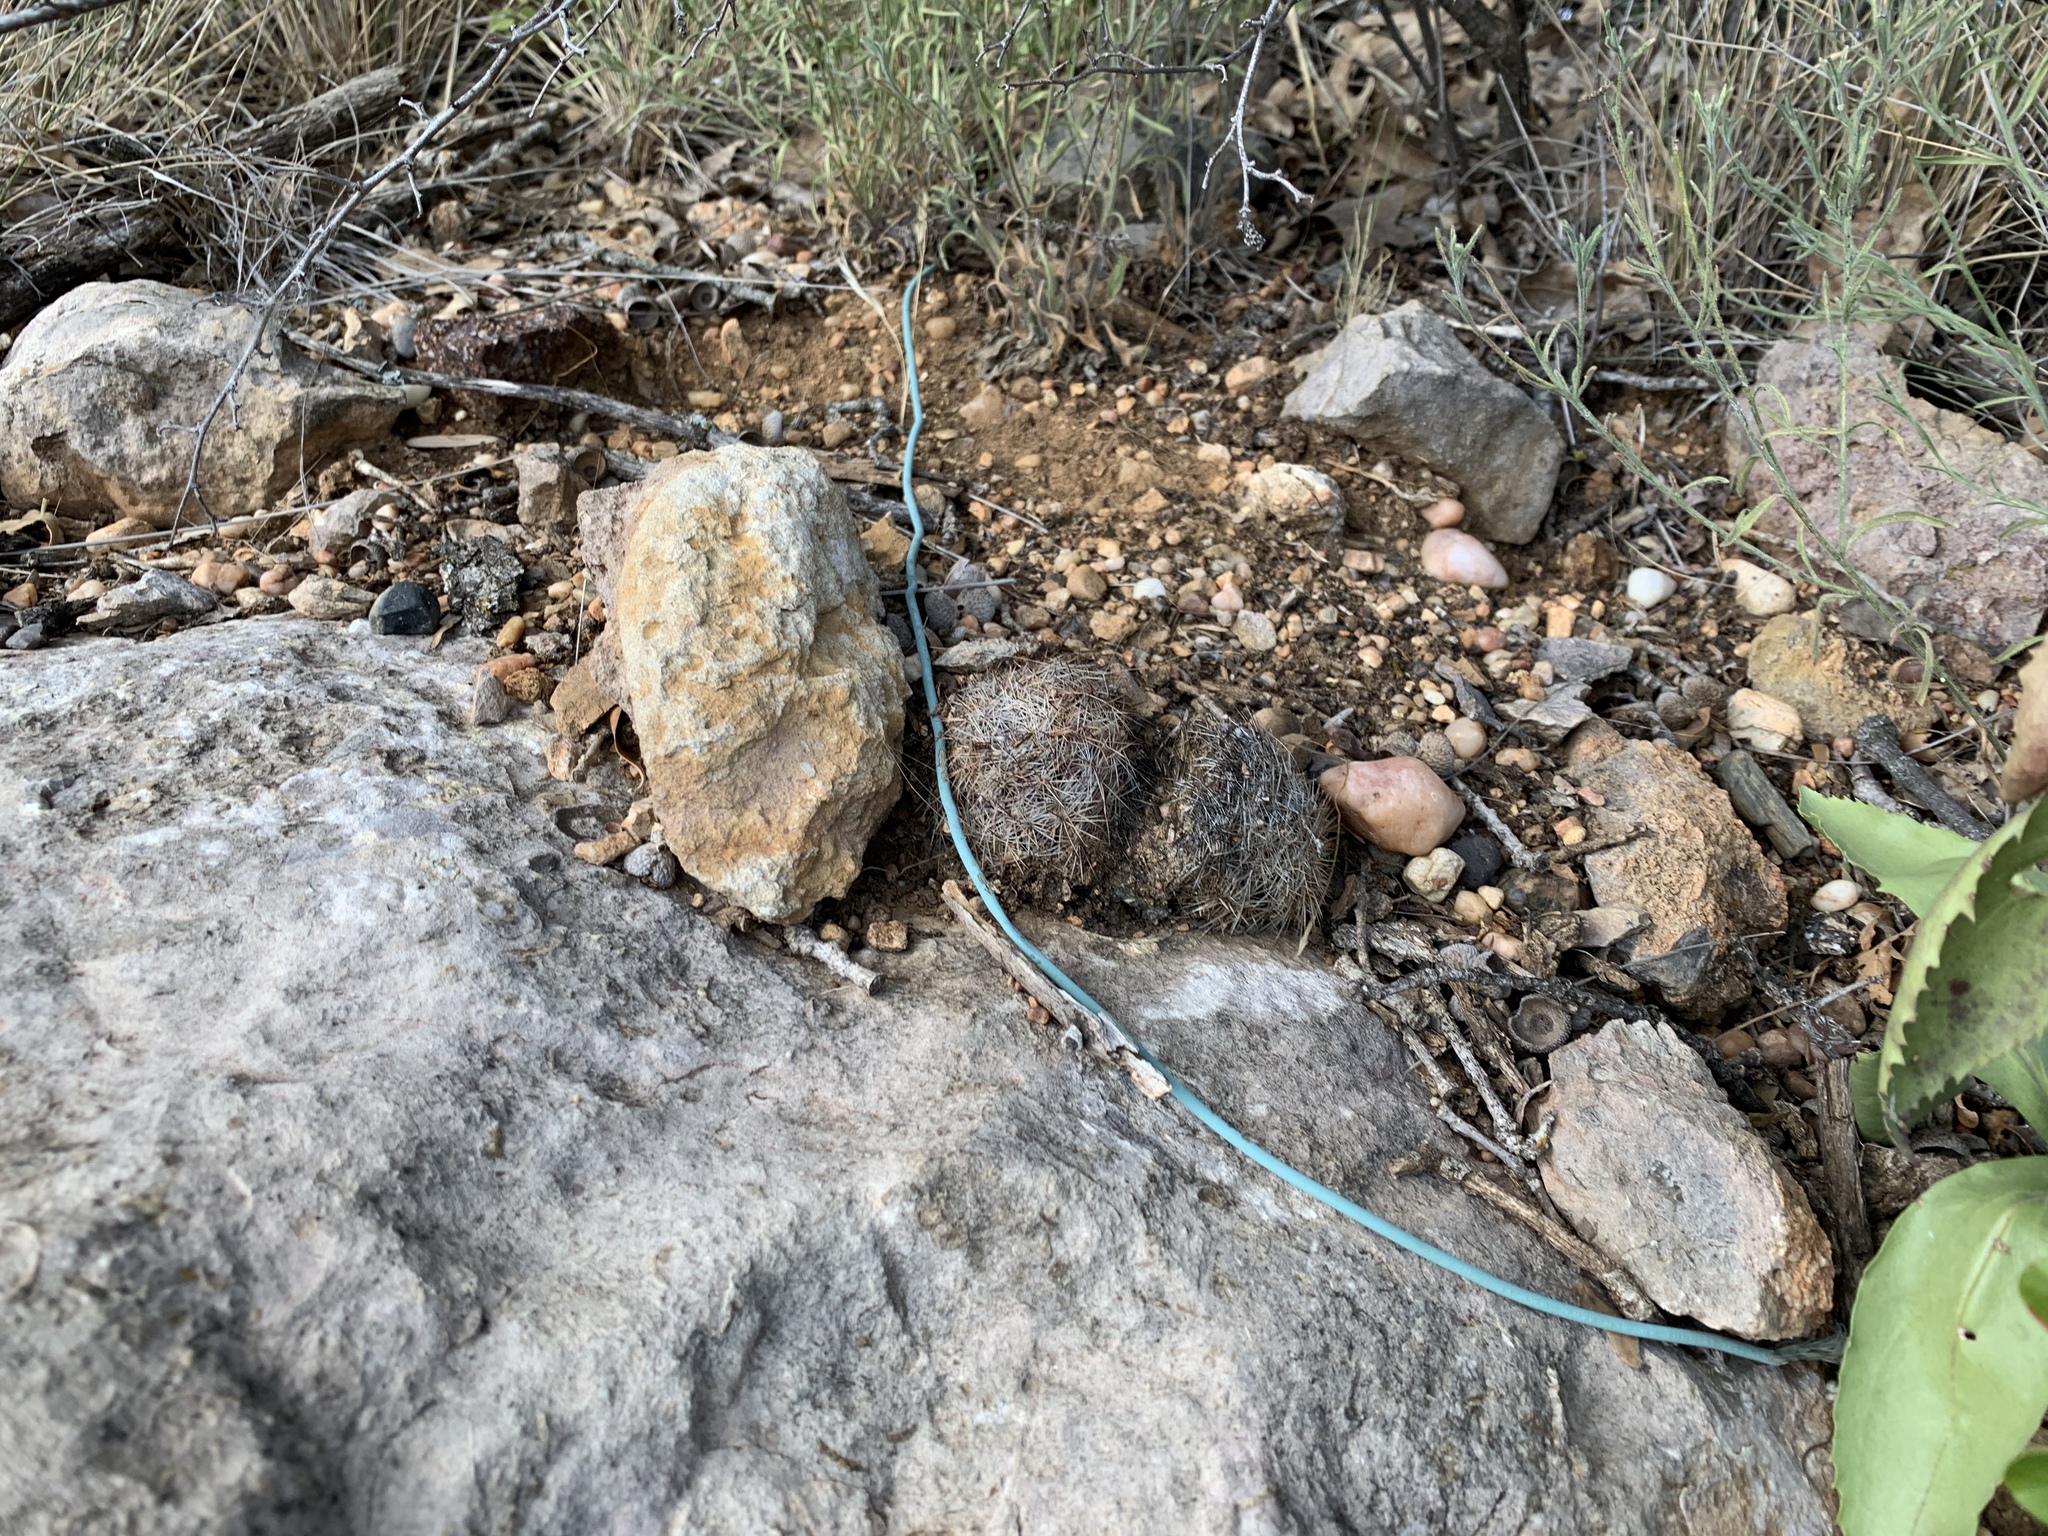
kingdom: Plantae
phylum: Tracheophyta
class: Magnoliopsida
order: Caryophyllales
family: Cactaceae
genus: Echinocereus
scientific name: Echinocereus reichenbachii
